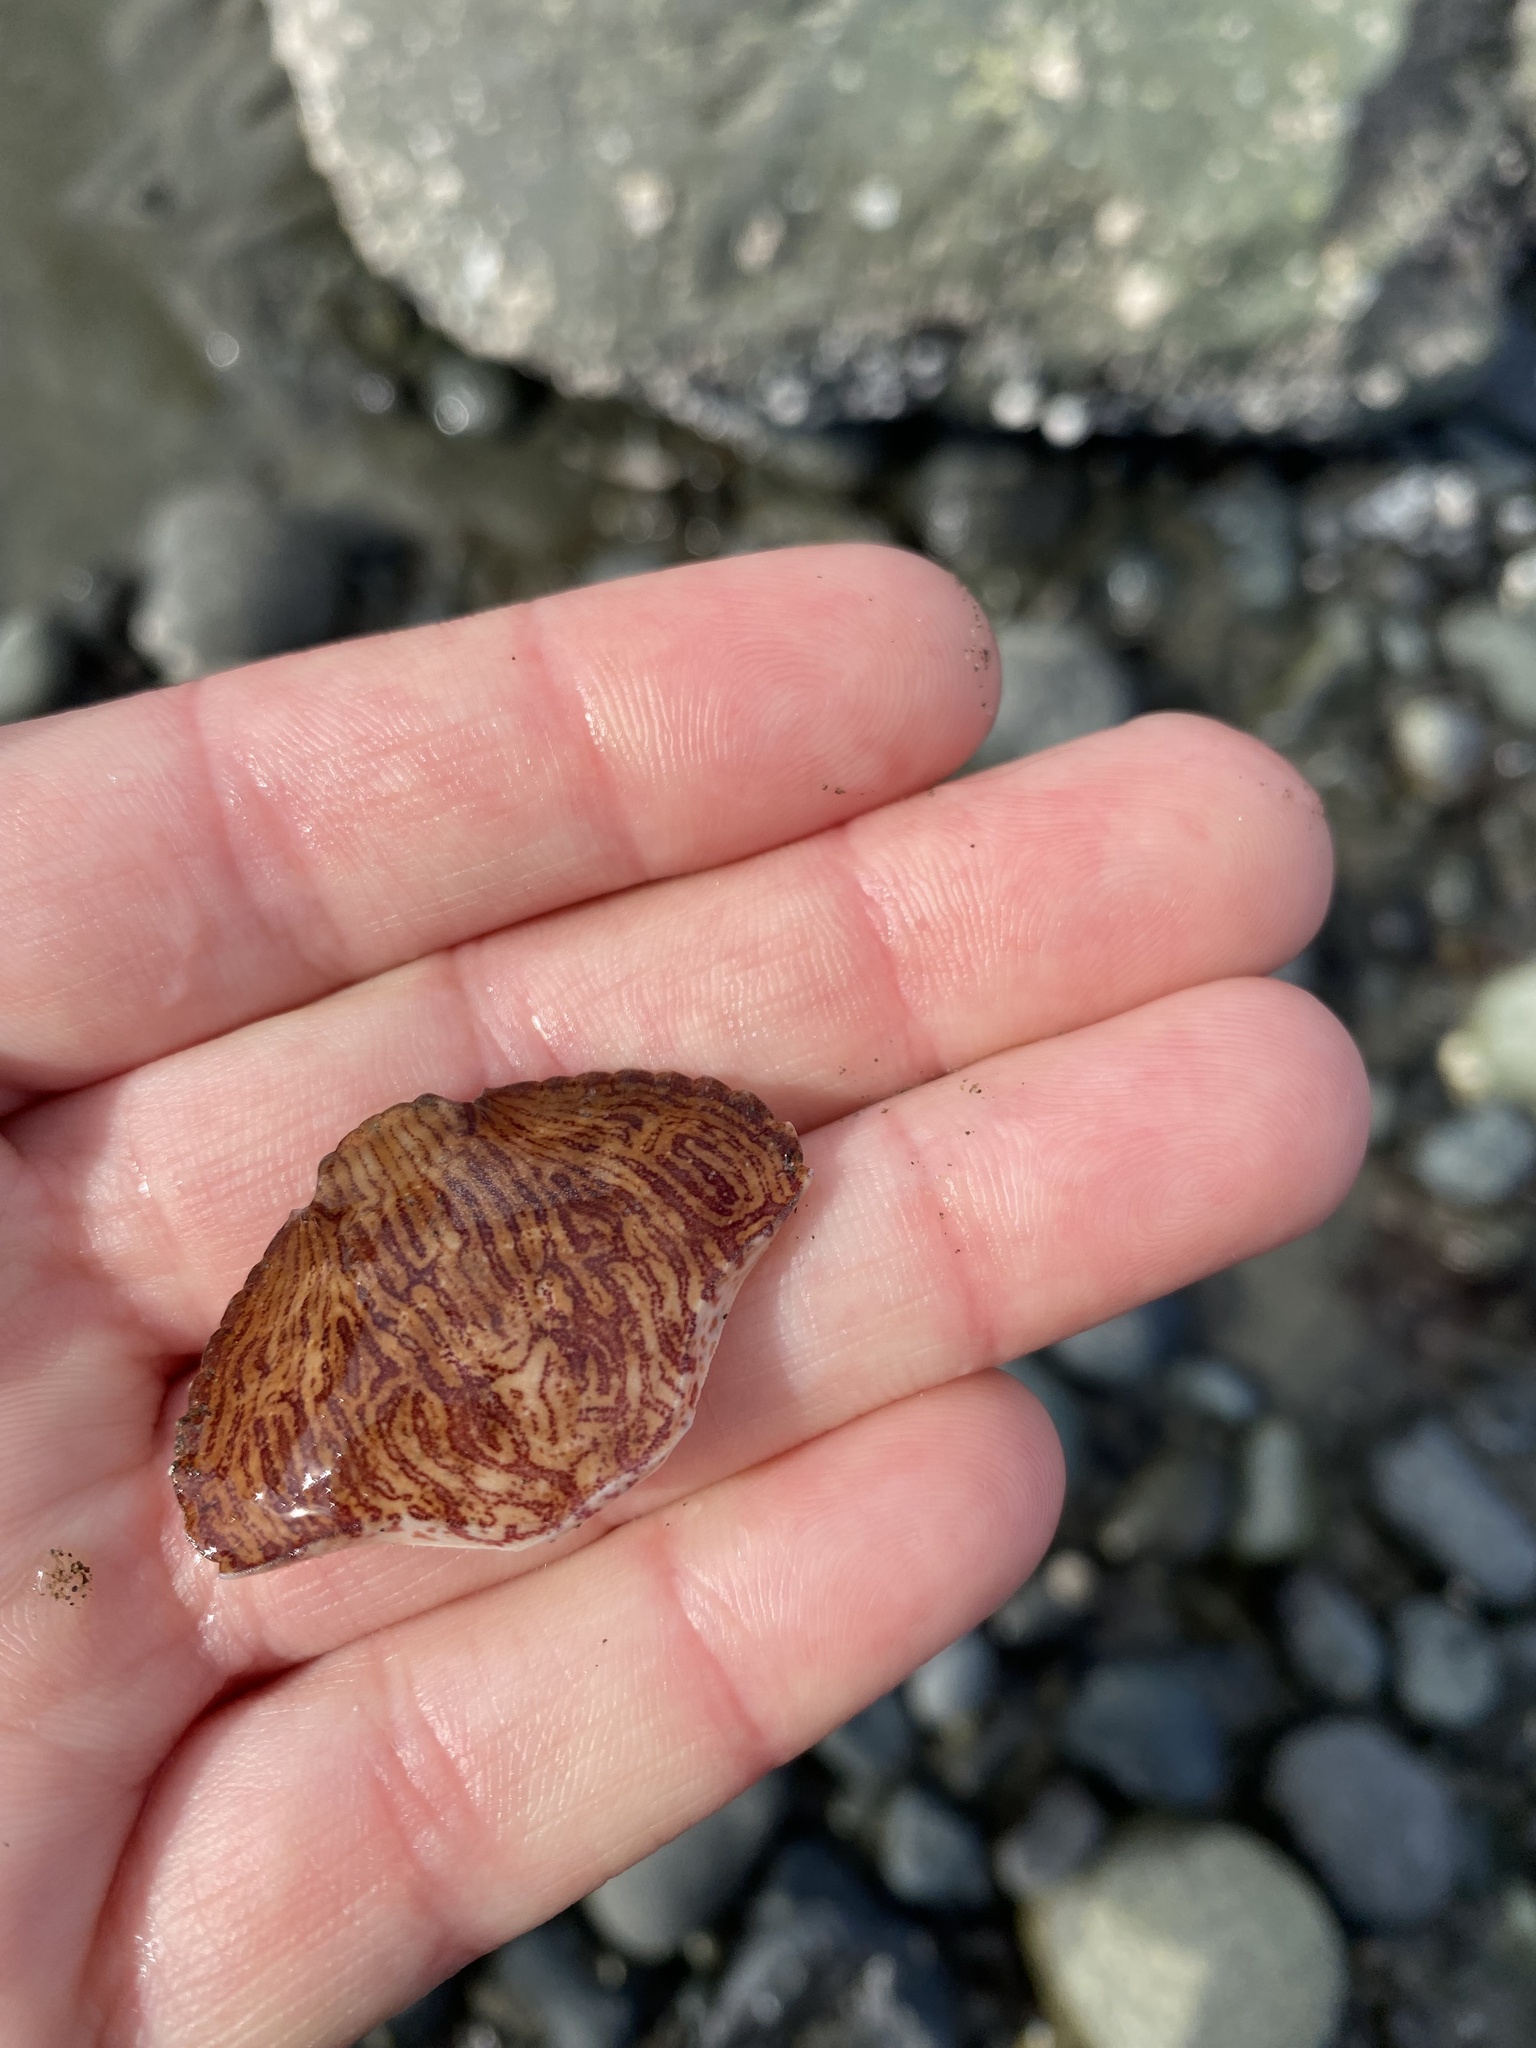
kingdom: Animalia
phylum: Arthropoda
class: Malacostraca
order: Decapoda
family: Cancridae
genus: Cancer
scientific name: Cancer productus
